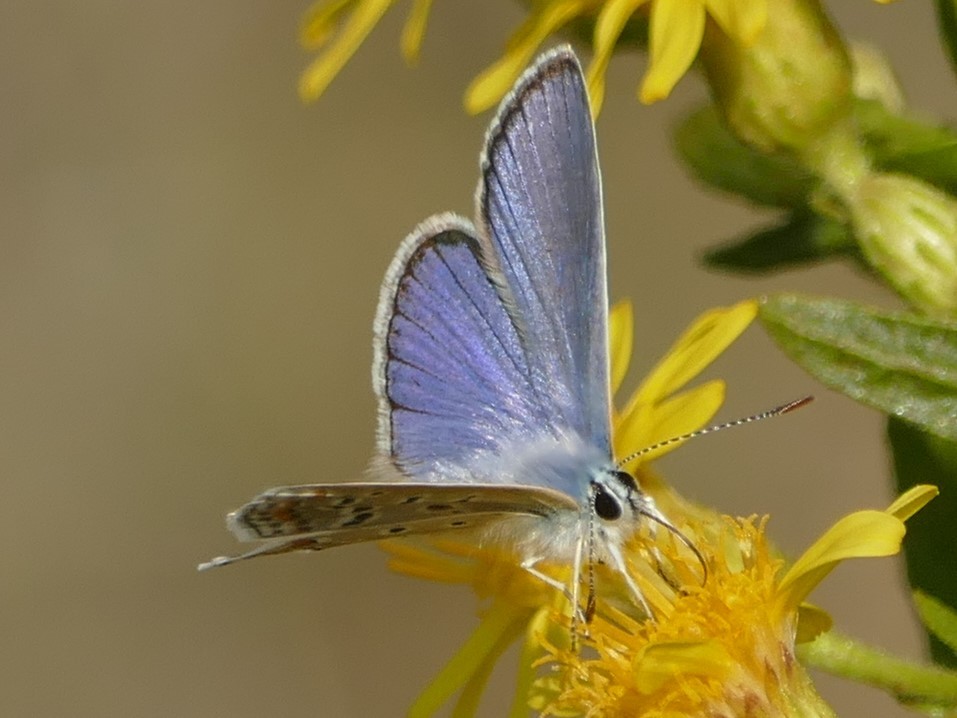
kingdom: Animalia
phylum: Arthropoda
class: Insecta
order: Lepidoptera
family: Lycaenidae
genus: Polyommatus
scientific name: Polyommatus icarus
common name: Common blue
